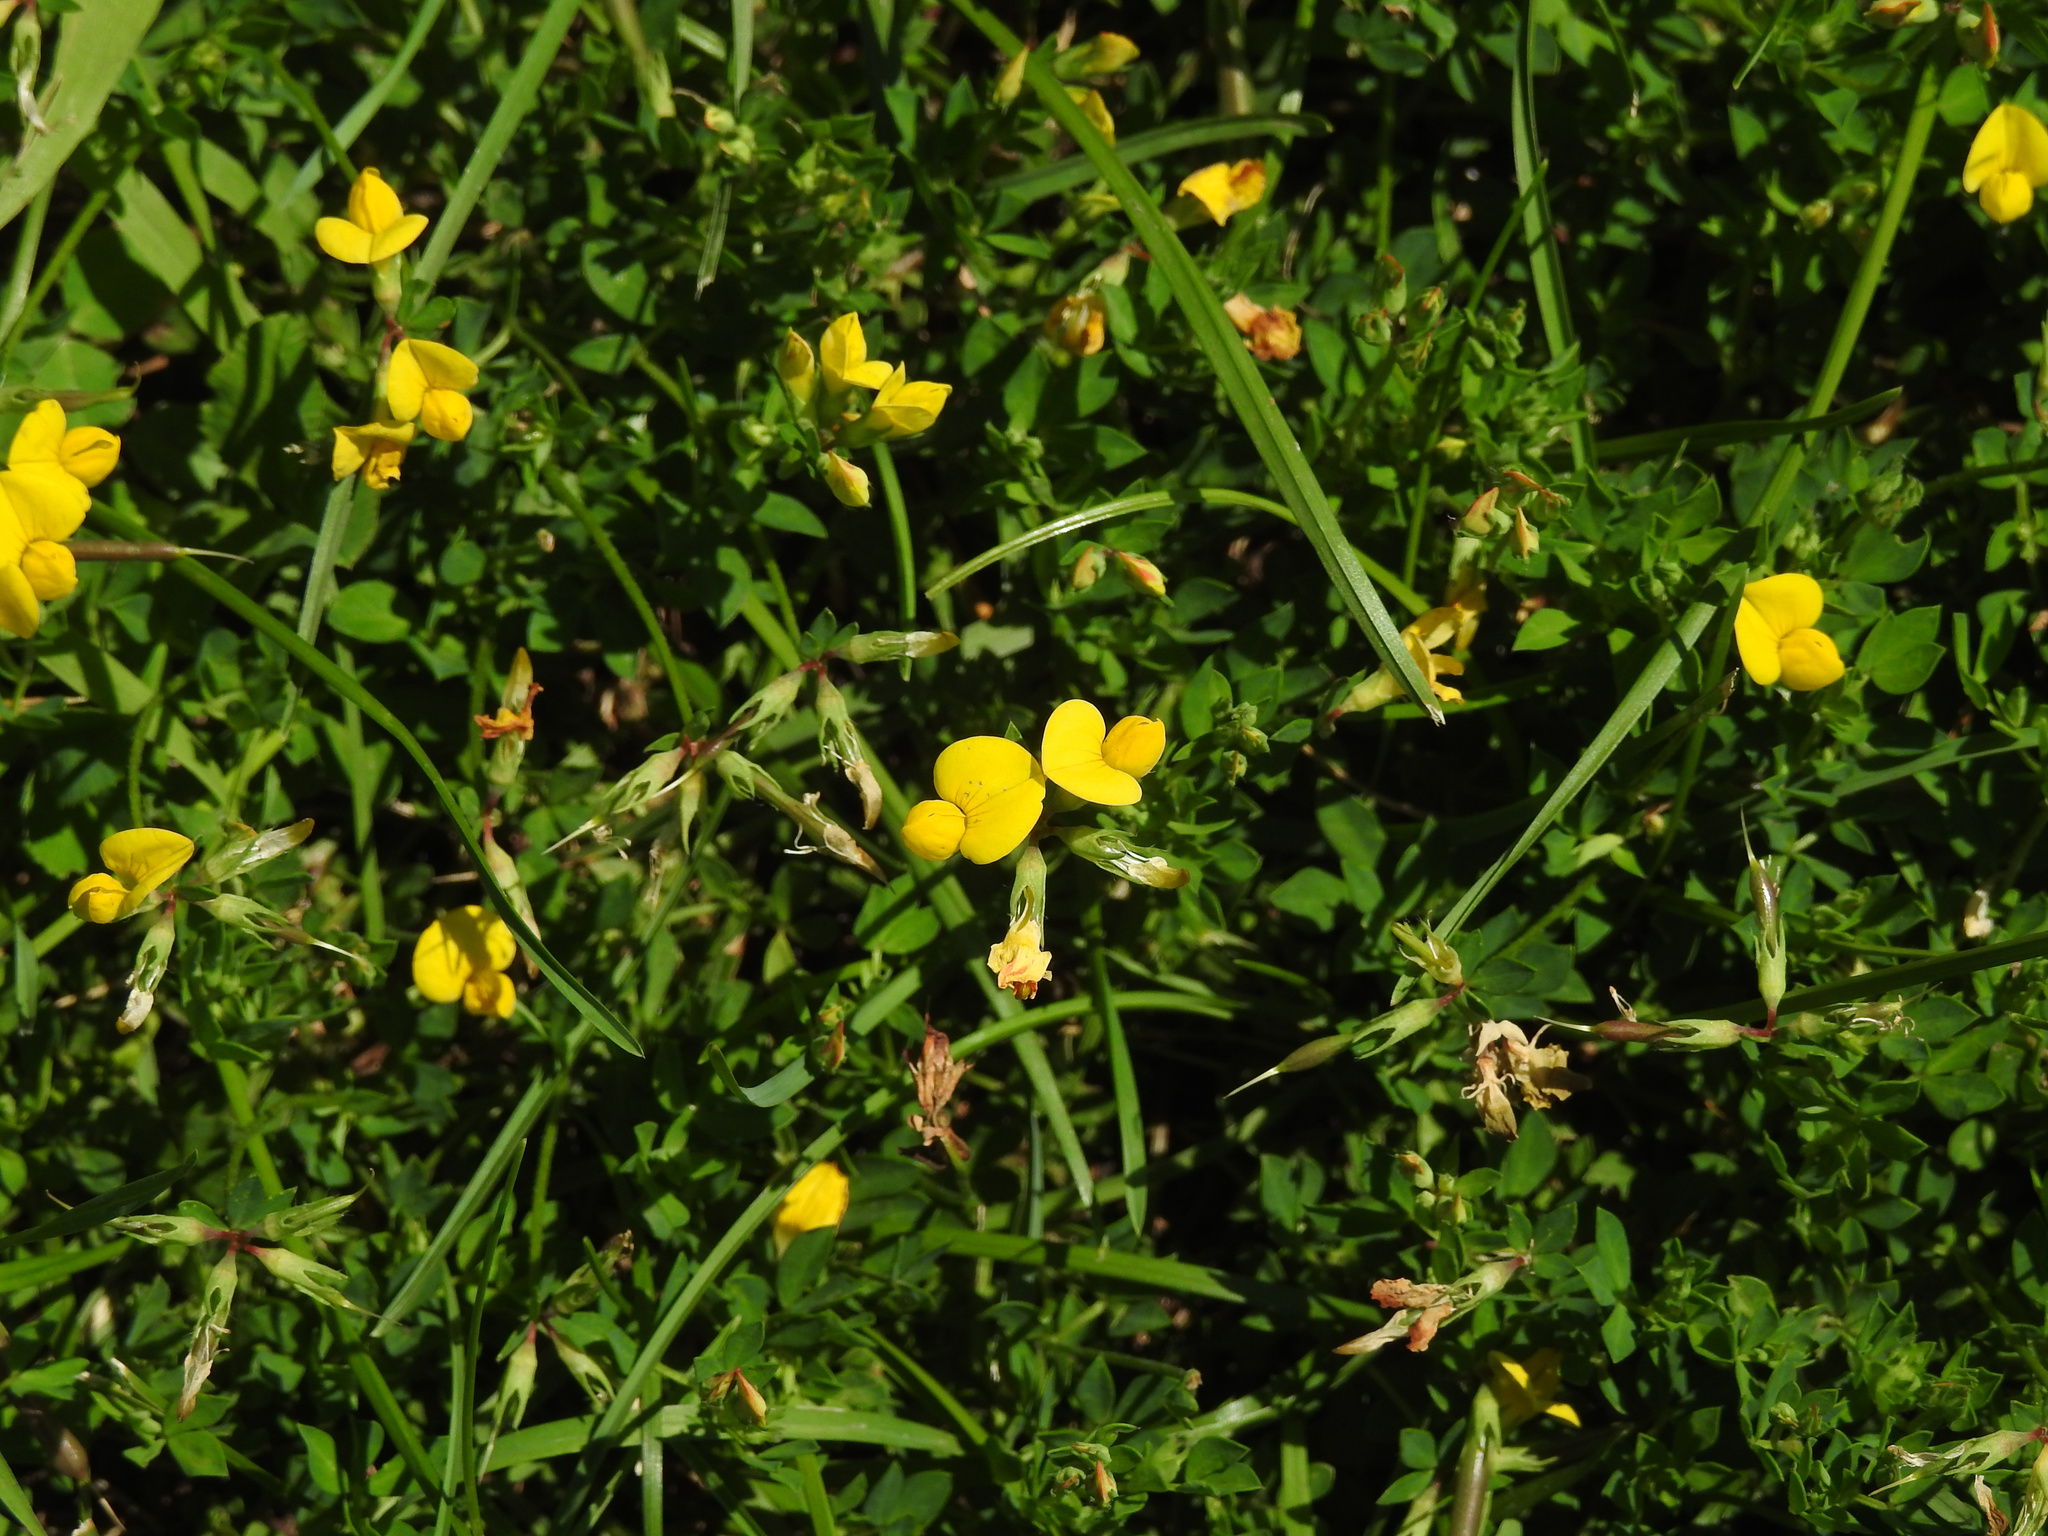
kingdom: Plantae
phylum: Tracheophyta
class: Magnoliopsida
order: Fabales
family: Fabaceae
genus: Lotus
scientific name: Lotus corniculatus
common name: Common bird's-foot-trefoil
